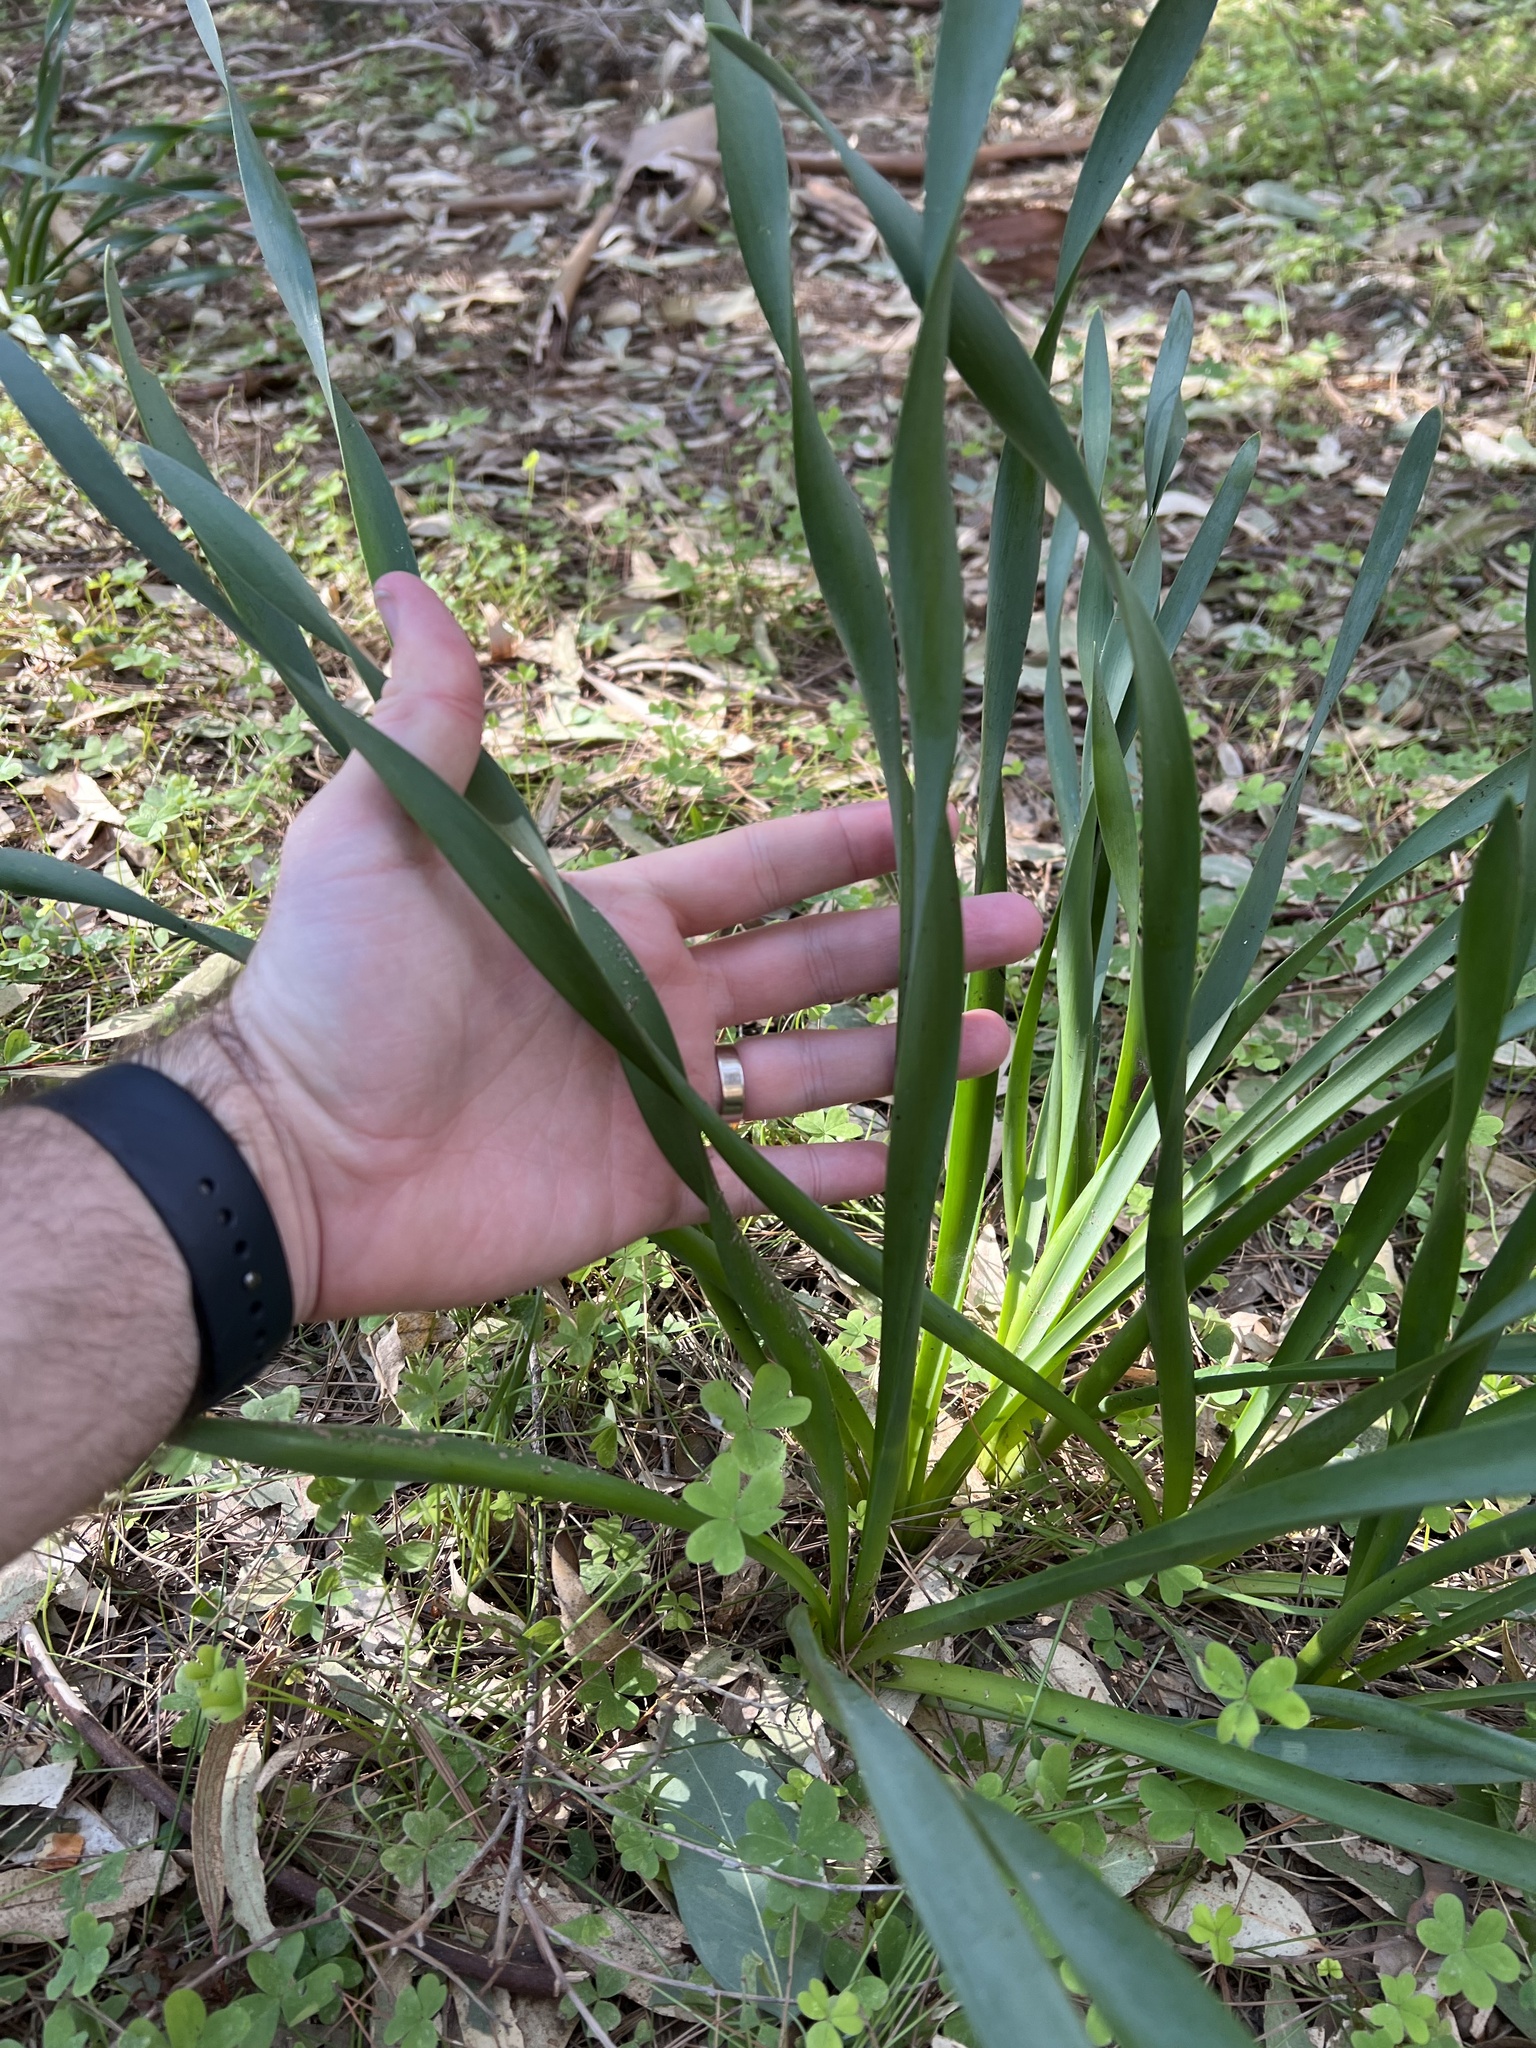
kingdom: Plantae
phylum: Tracheophyta
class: Liliopsida
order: Asparagales
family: Amaryllidaceae
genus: Pancratium
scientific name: Pancratium maritimum
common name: Sea-daffodil
